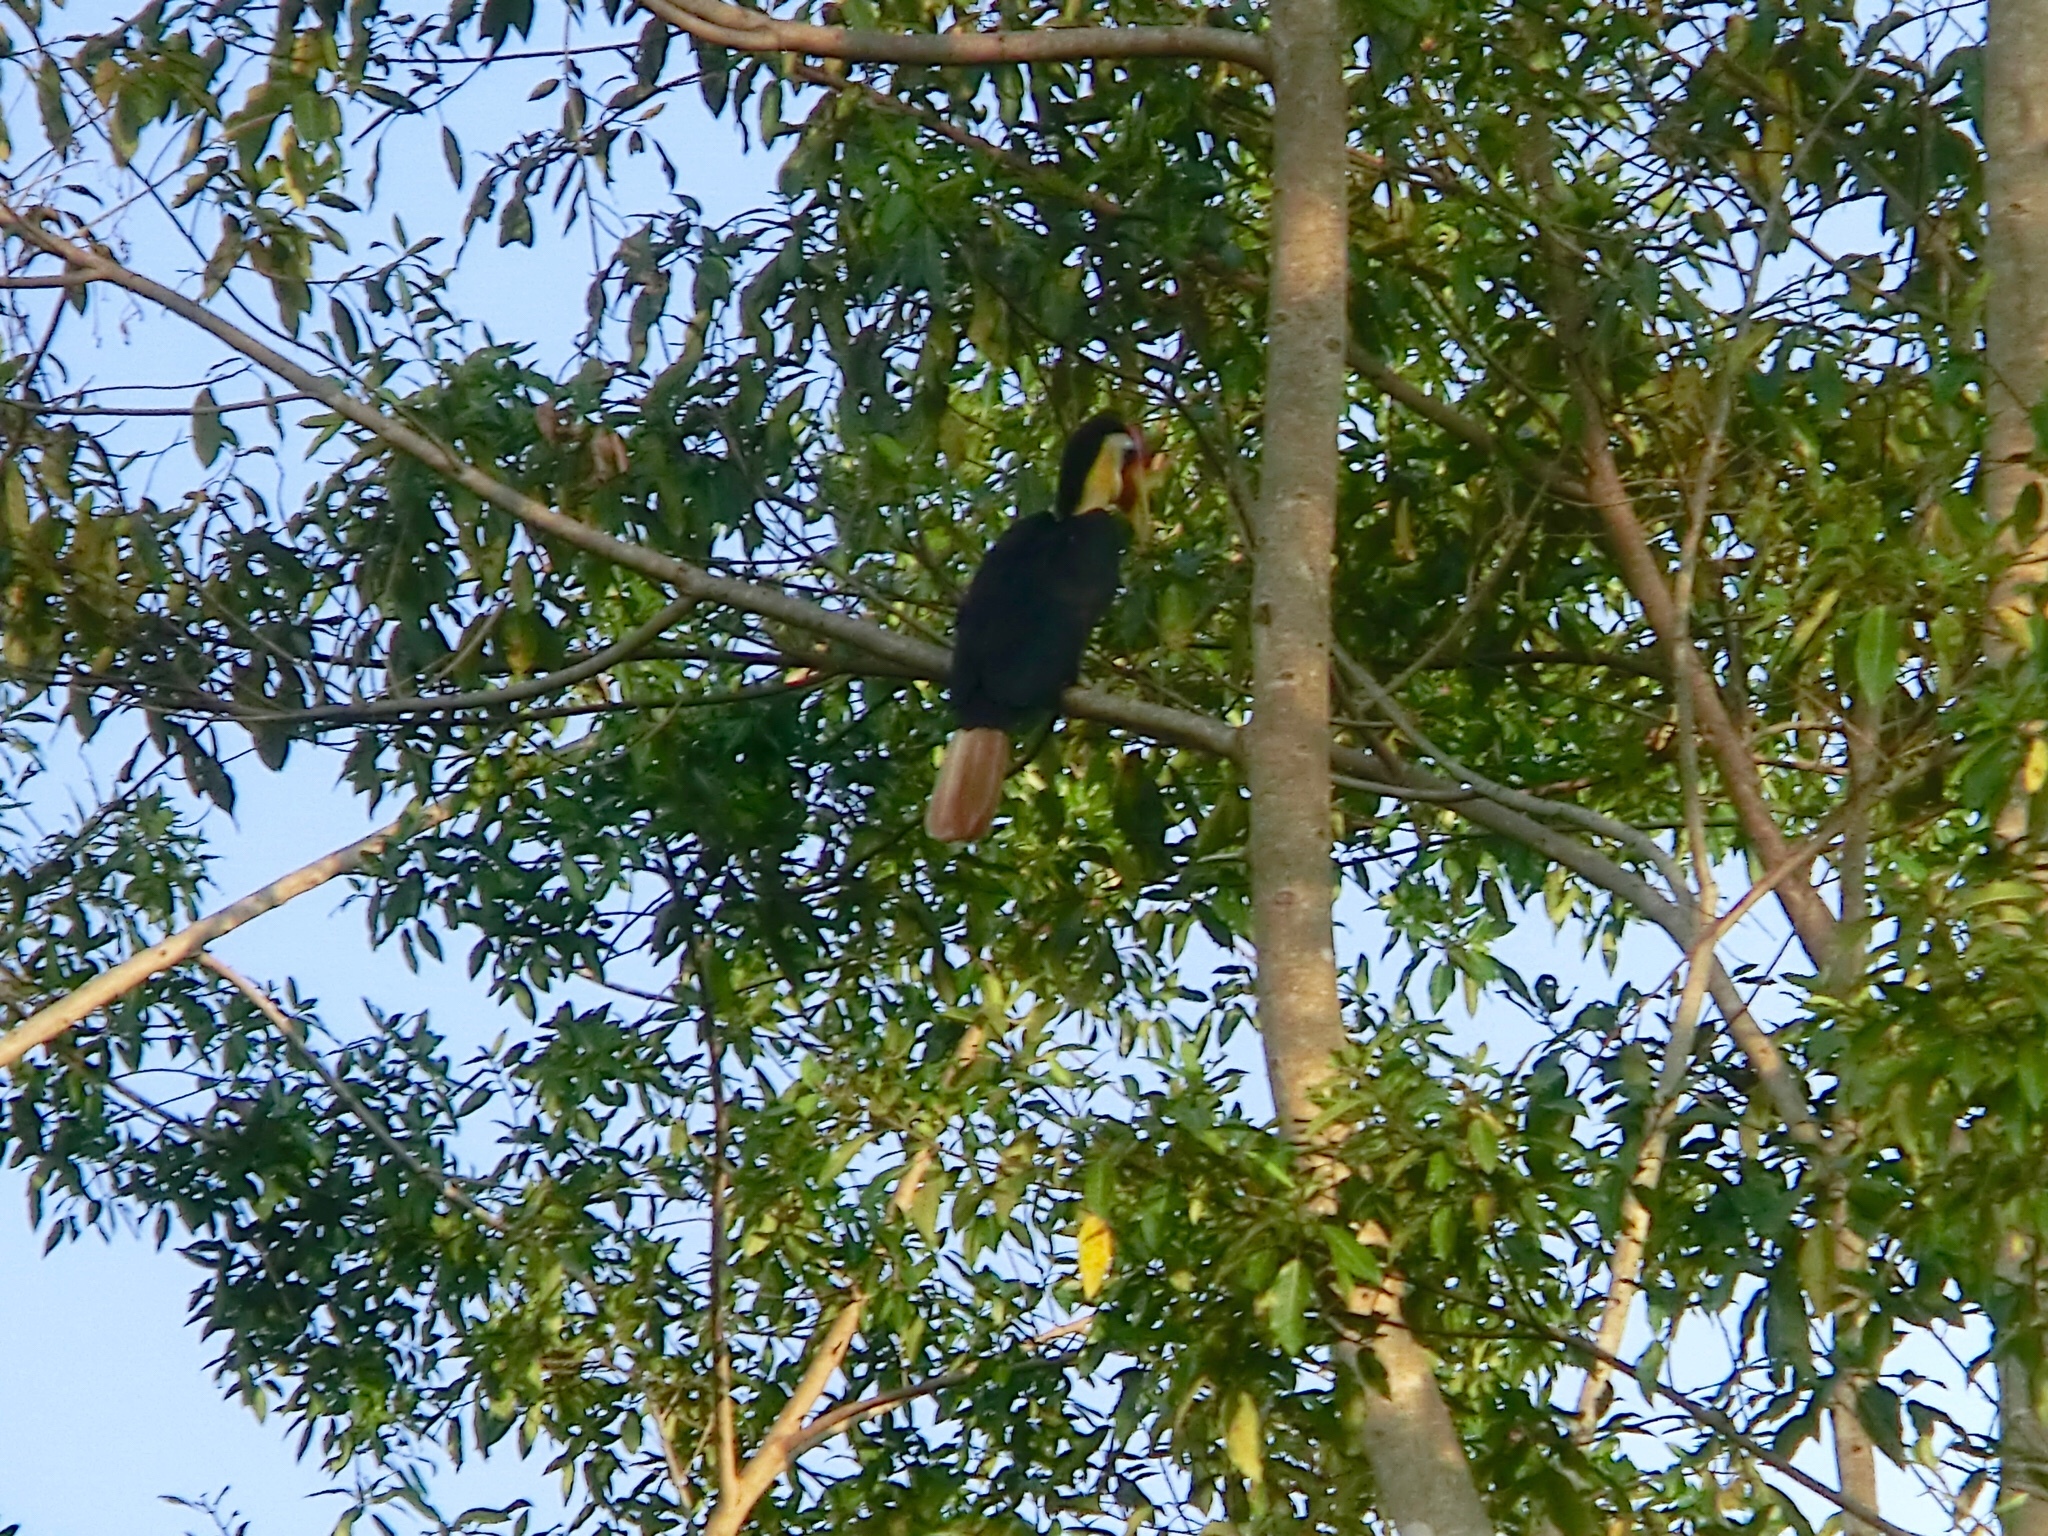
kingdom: Animalia
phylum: Chordata
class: Aves
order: Bucerotiformes
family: Bucerotidae
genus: Rhabdotorrhinus
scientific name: Rhabdotorrhinus corrugatus
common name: Wrinkled hornbill
